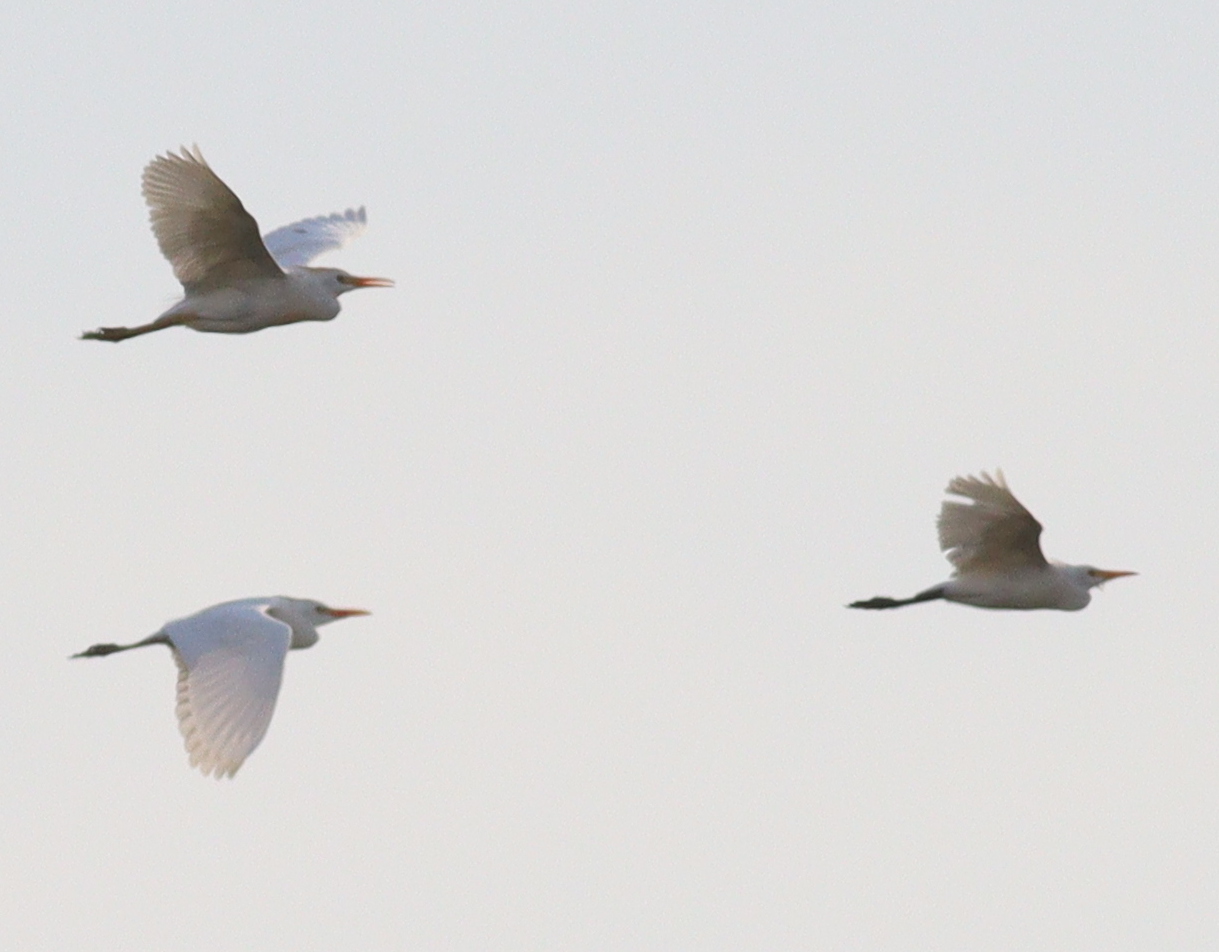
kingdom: Animalia
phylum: Chordata
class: Aves
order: Pelecaniformes
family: Ardeidae
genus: Bubulcus
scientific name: Bubulcus ibis
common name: Cattle egret
